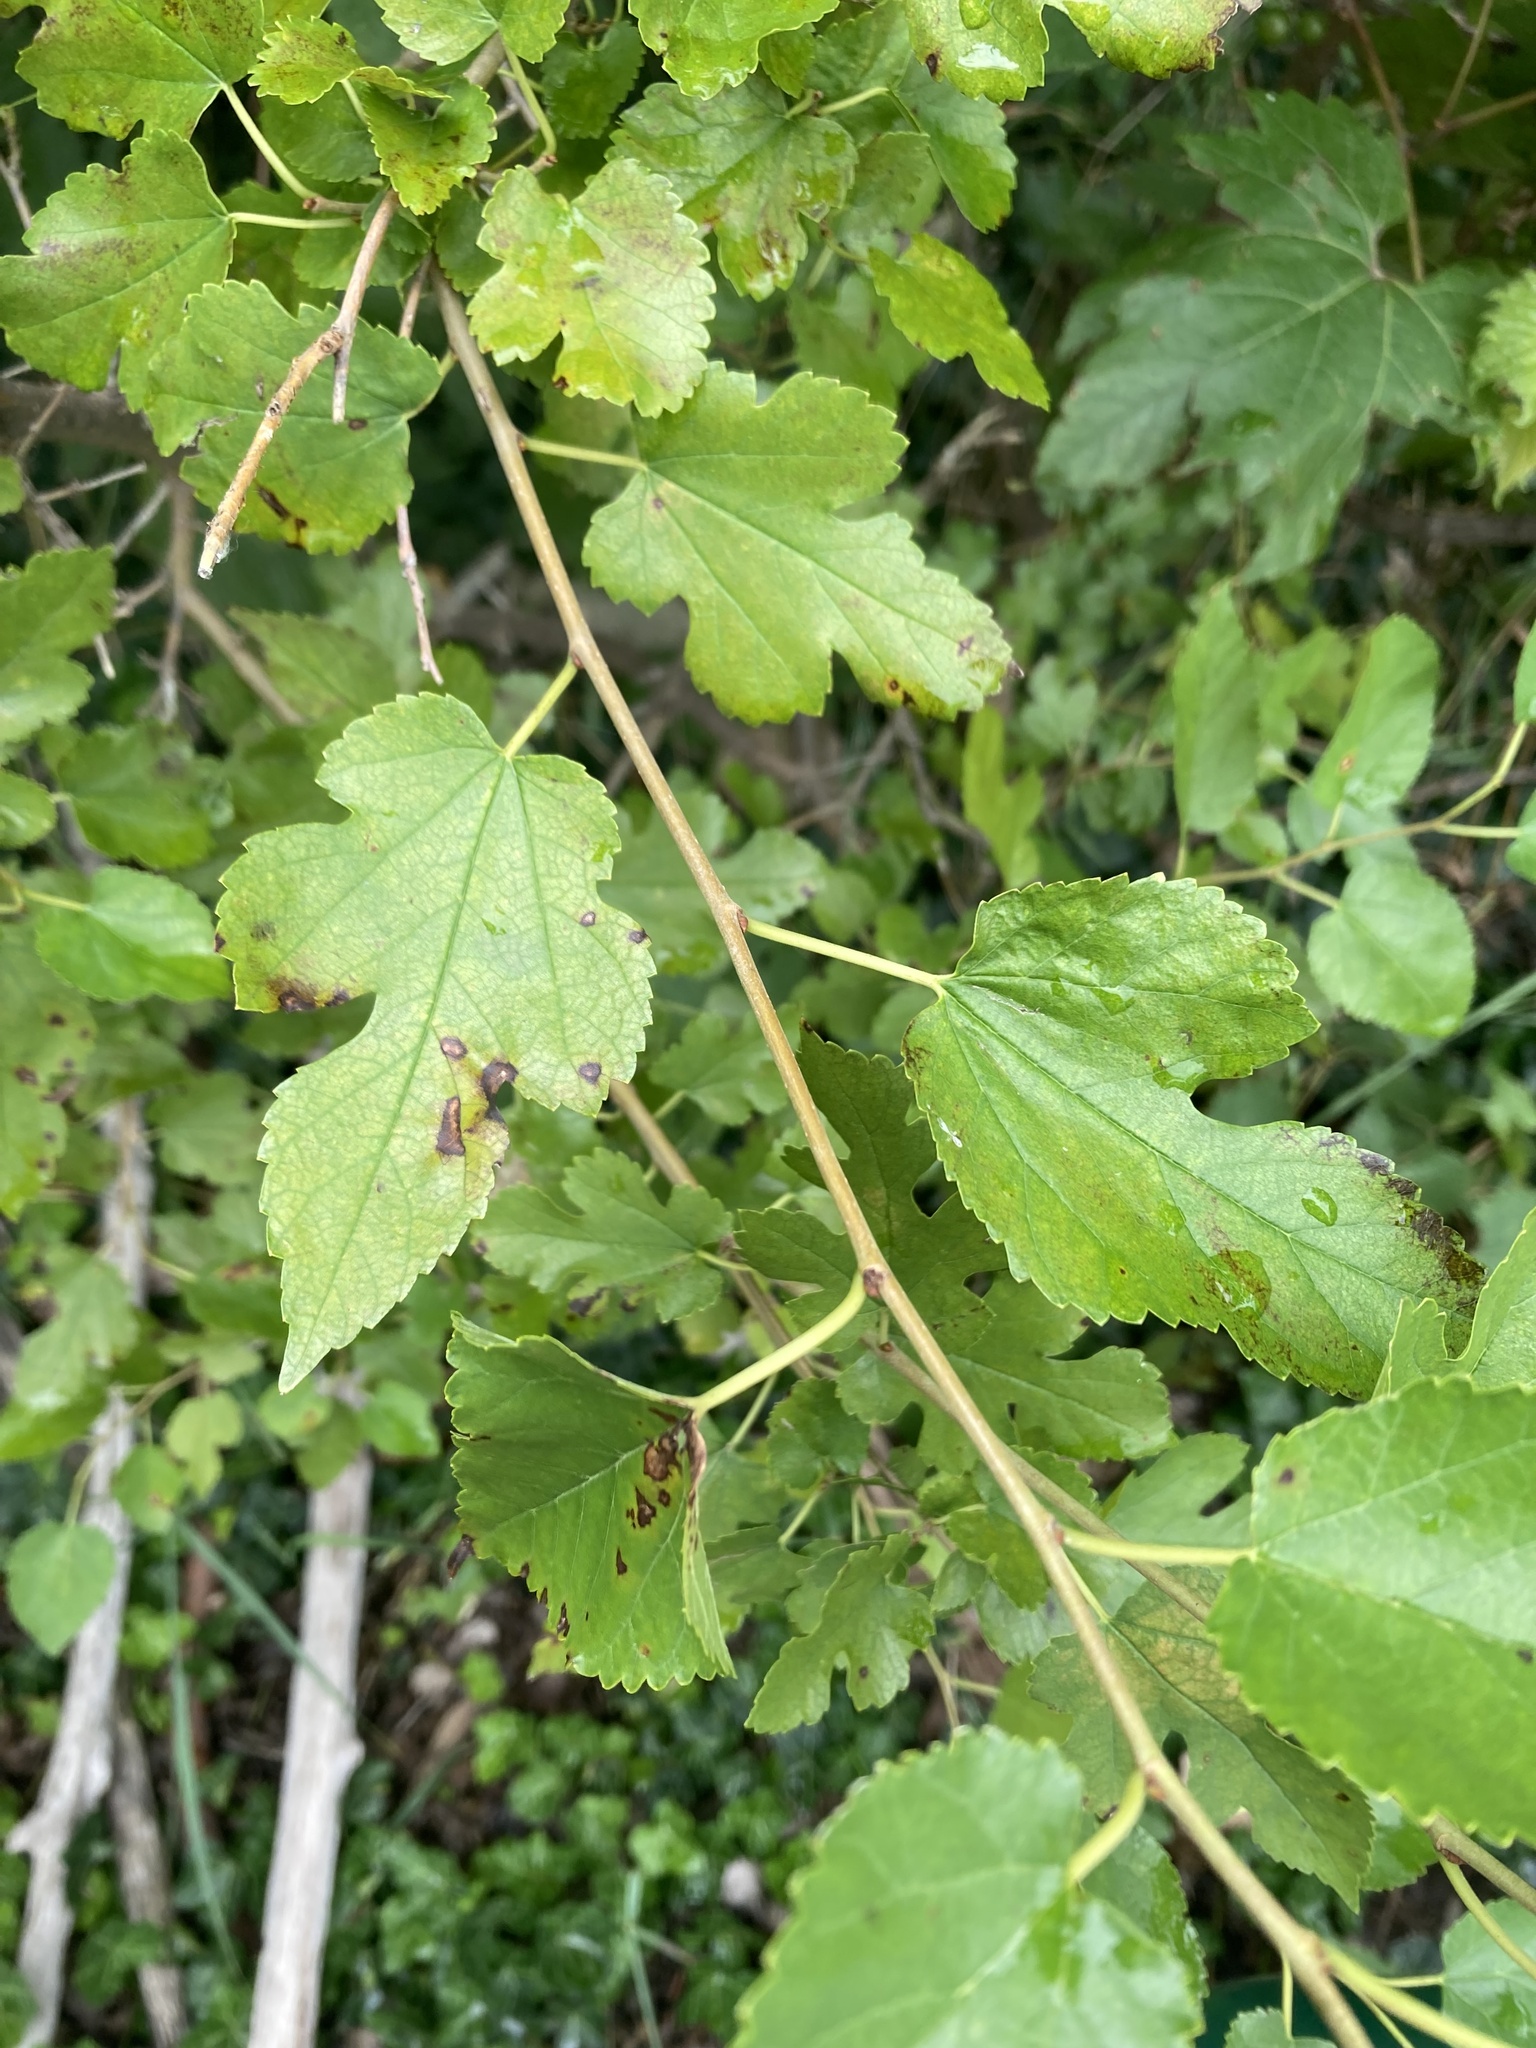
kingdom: Plantae
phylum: Tracheophyta
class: Magnoliopsida
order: Rosales
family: Moraceae
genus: Morus
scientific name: Morus alba
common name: White mulberry
